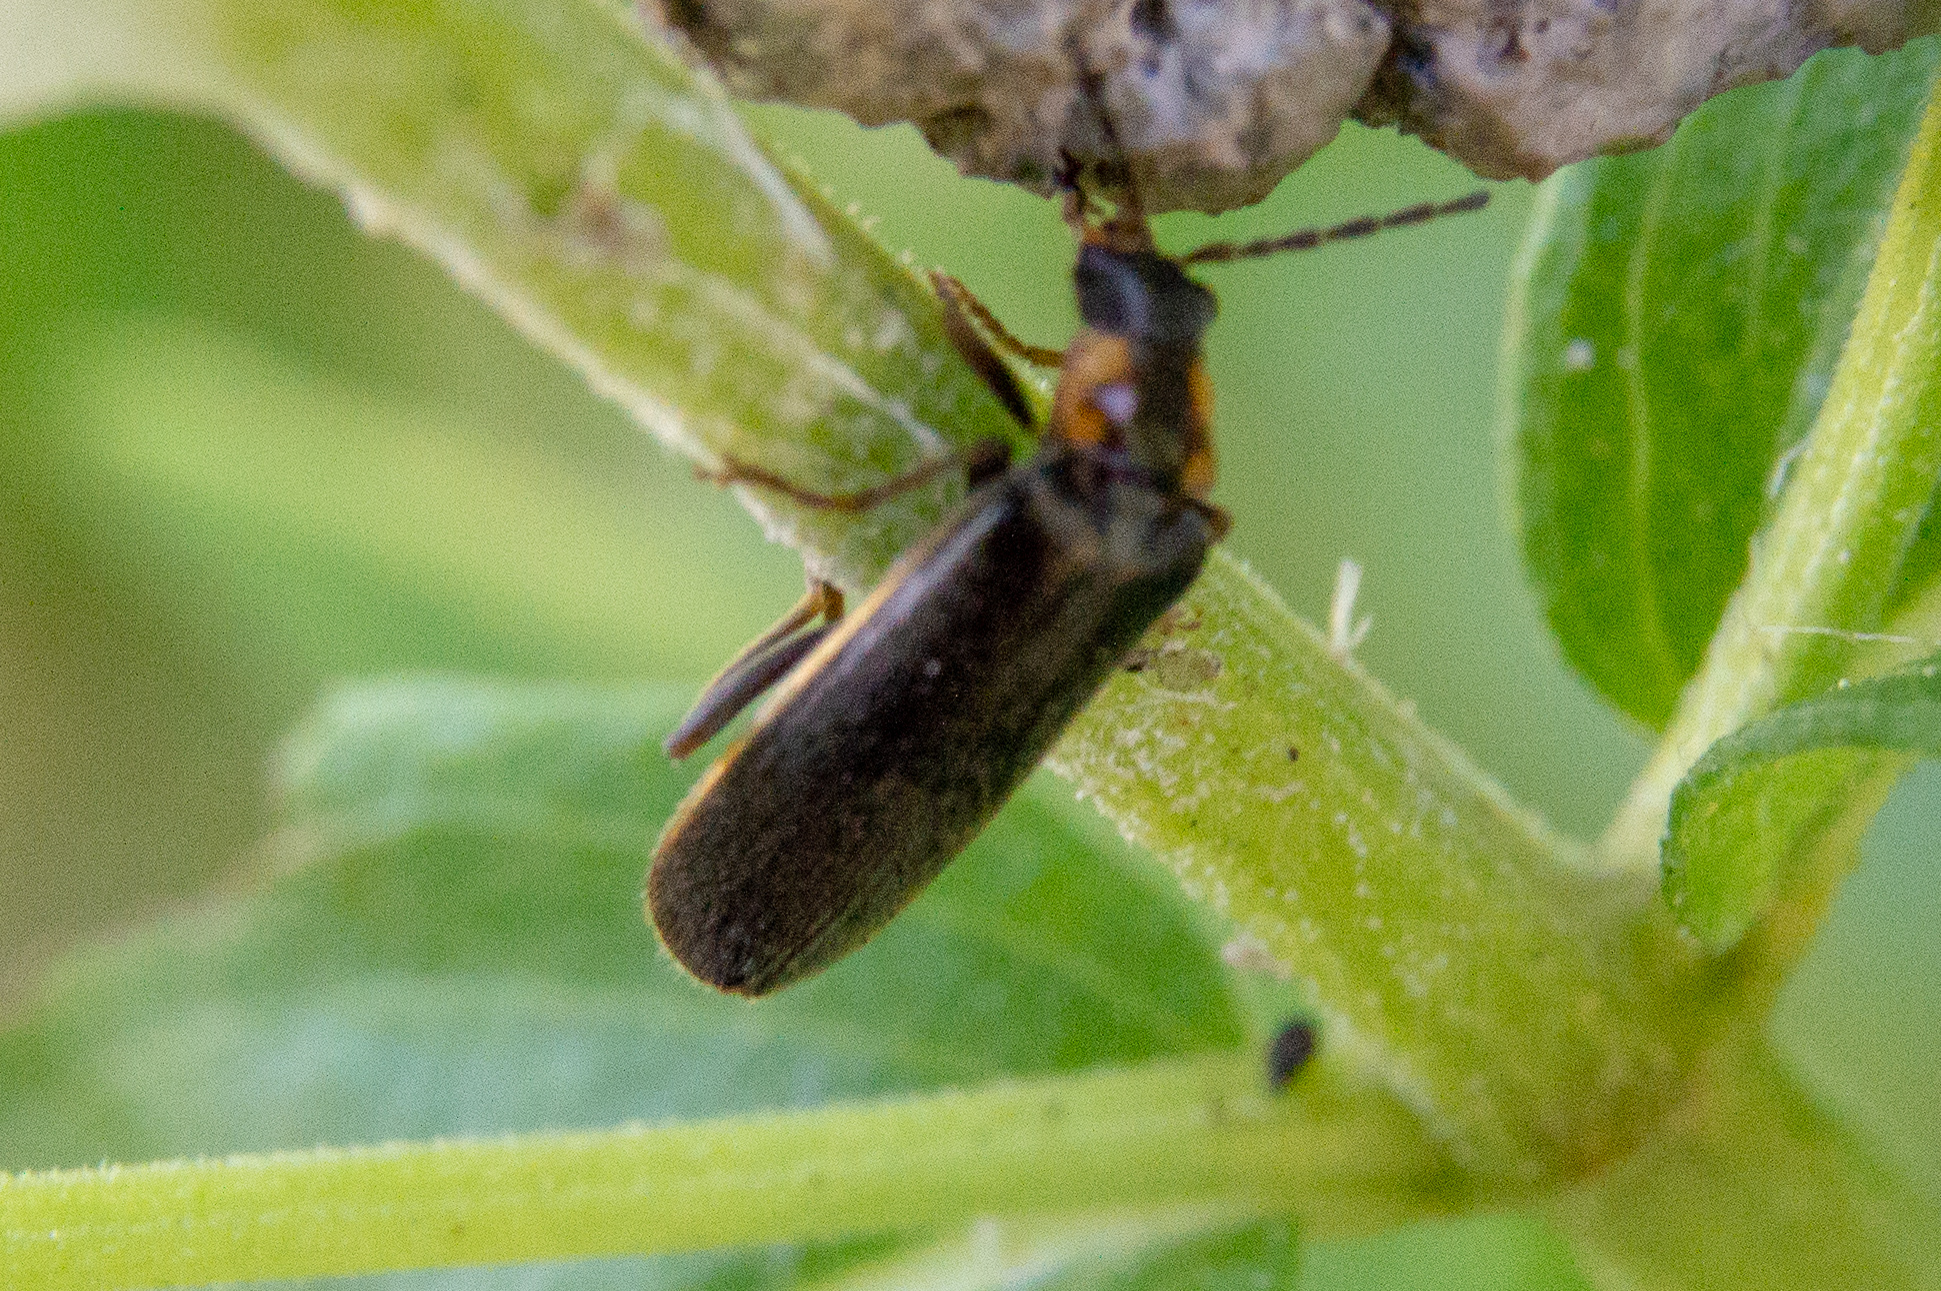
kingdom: Animalia
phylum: Arthropoda
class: Insecta
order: Coleoptera
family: Cantharidae
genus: Rhagonycha
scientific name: Rhagonycha angulata
